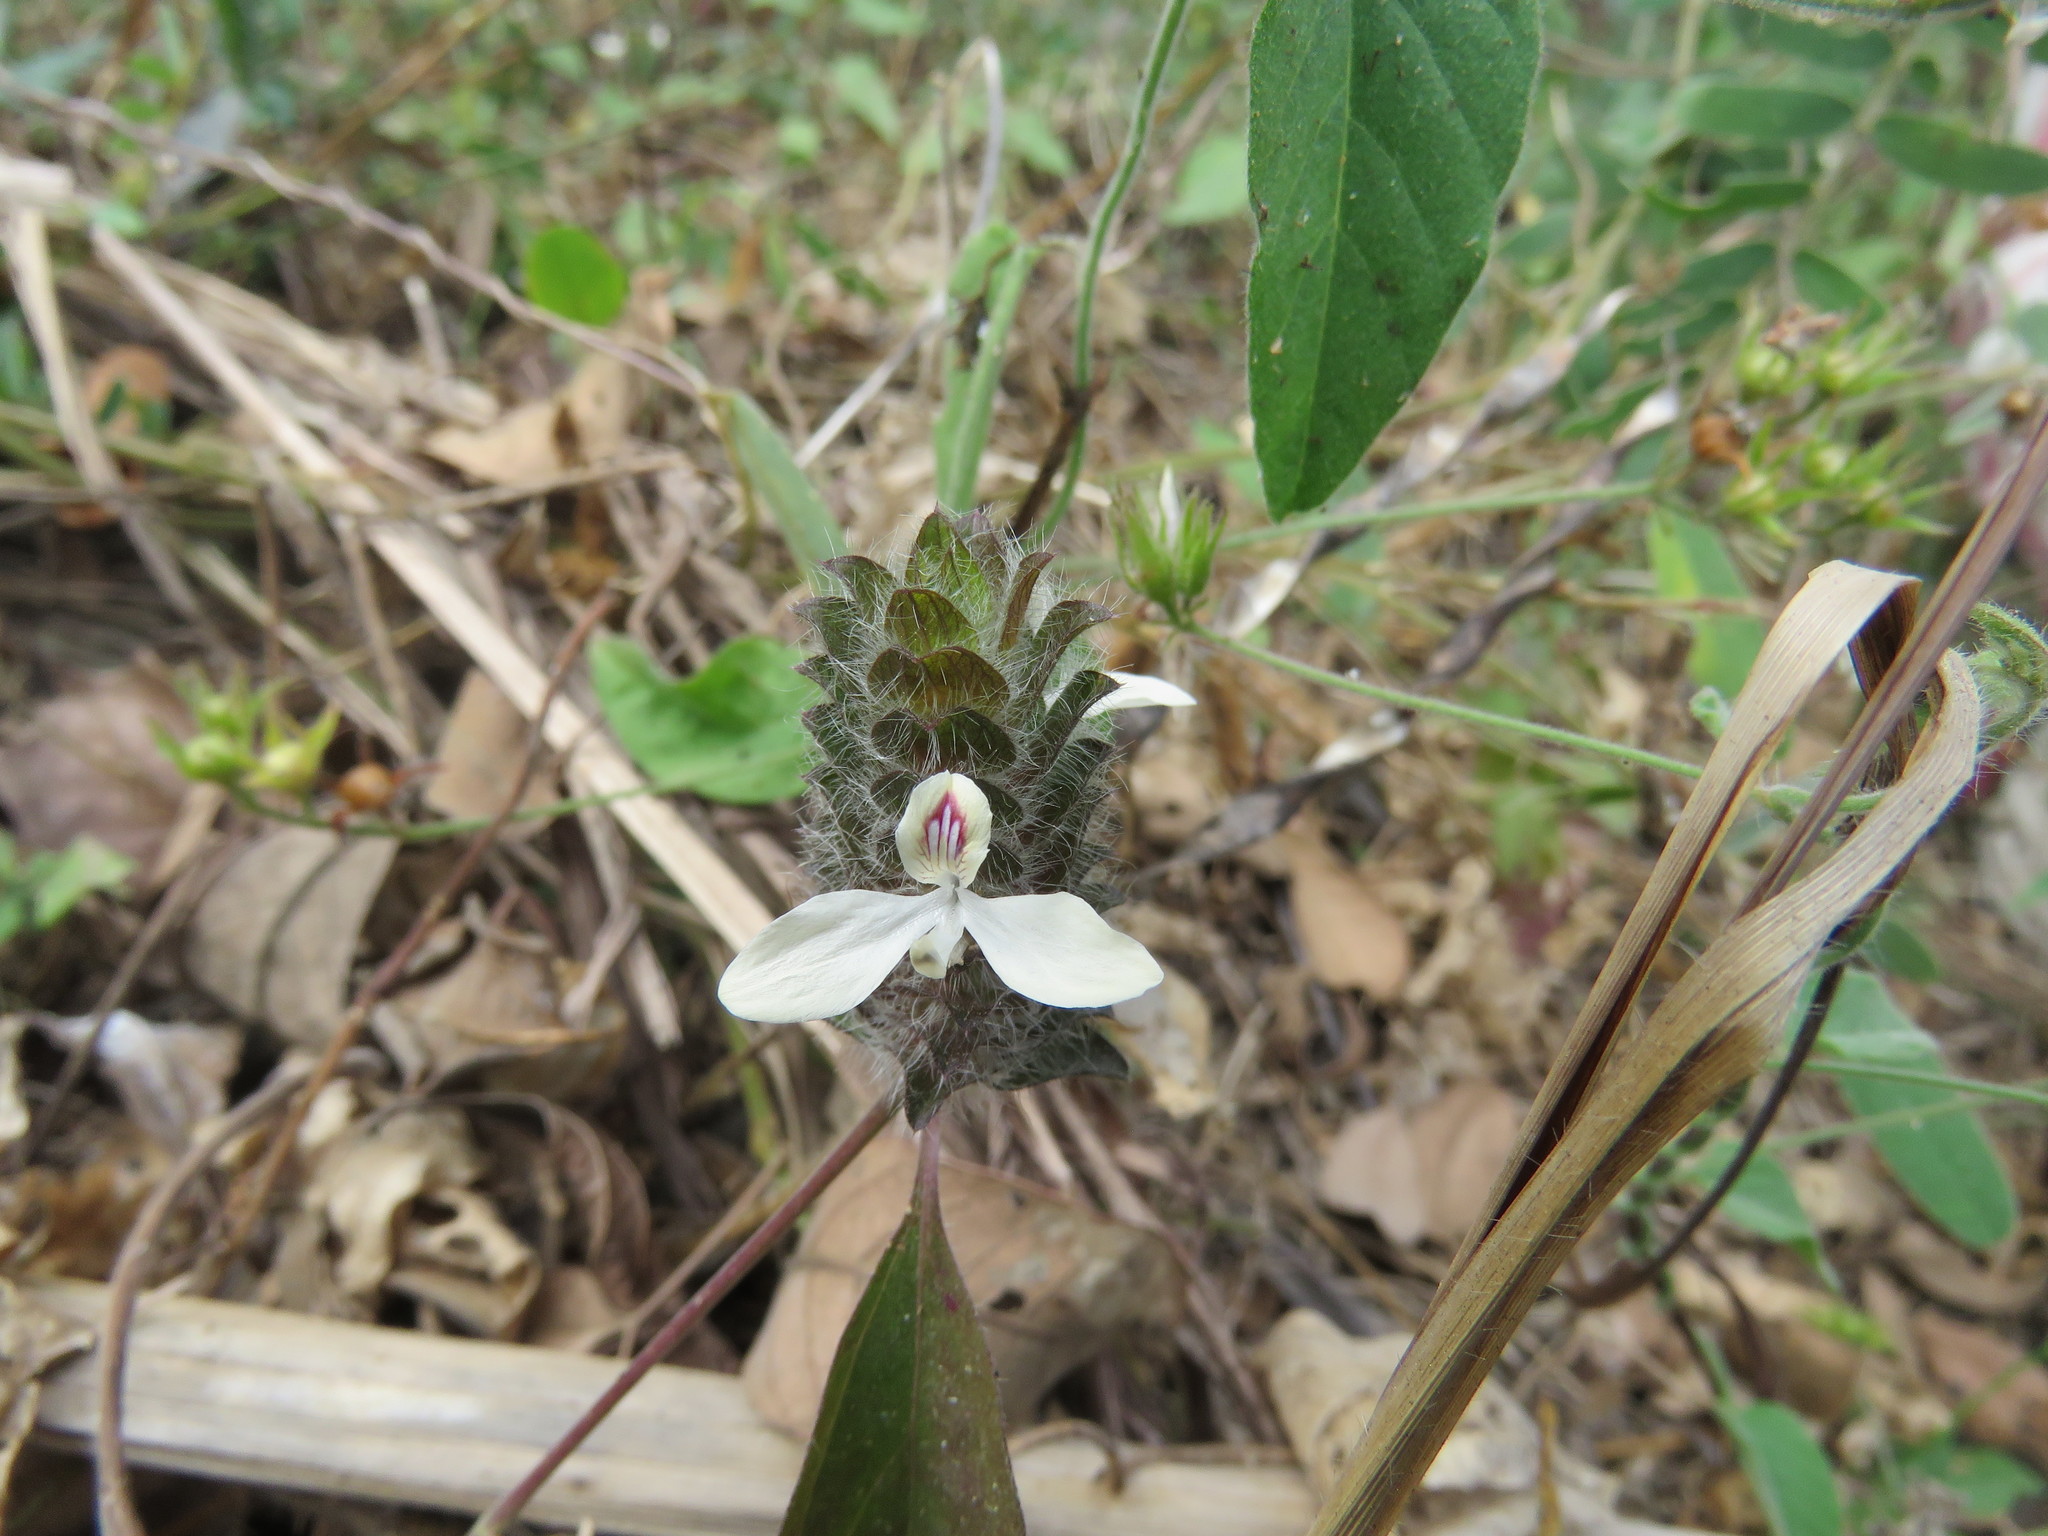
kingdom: Plantae
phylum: Tracheophyta
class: Magnoliopsida
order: Lamiales
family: Acanthaceae
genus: Tetramerium
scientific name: Tetramerium nervosum
